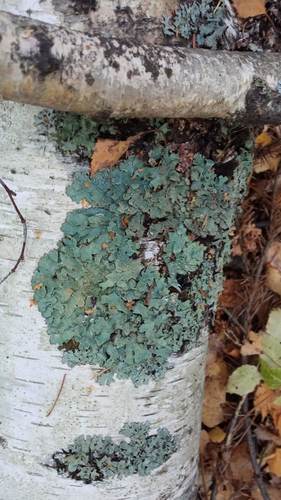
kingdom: Fungi
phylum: Ascomycota
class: Lecanoromycetes
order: Lecanorales
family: Parmeliaceae
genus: Parmelia
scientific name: Parmelia sulcata
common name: Netted shield lichen
